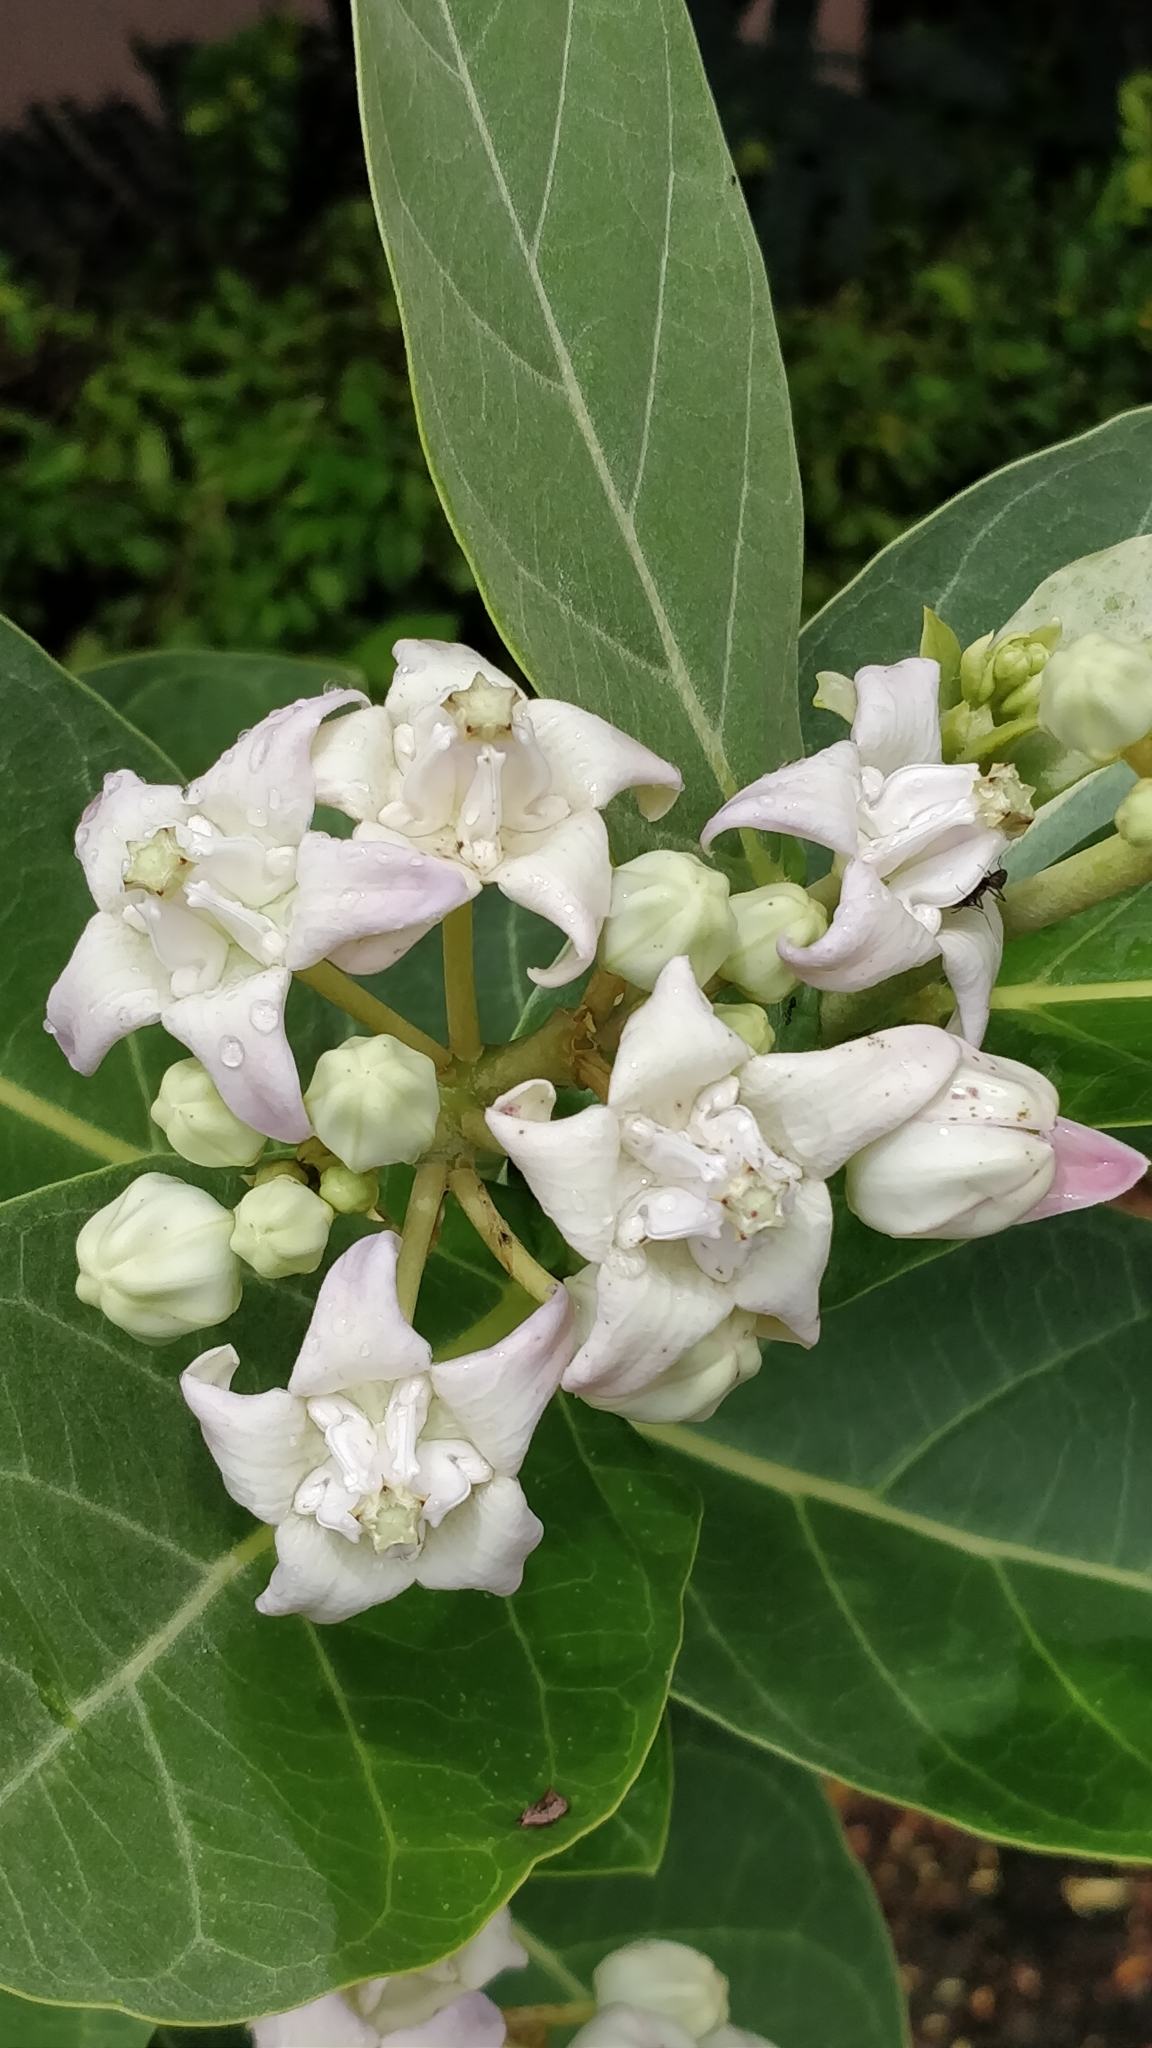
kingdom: Plantae
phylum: Tracheophyta
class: Magnoliopsida
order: Gentianales
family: Apocynaceae
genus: Calotropis
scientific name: Calotropis gigantea
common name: Crown flower
